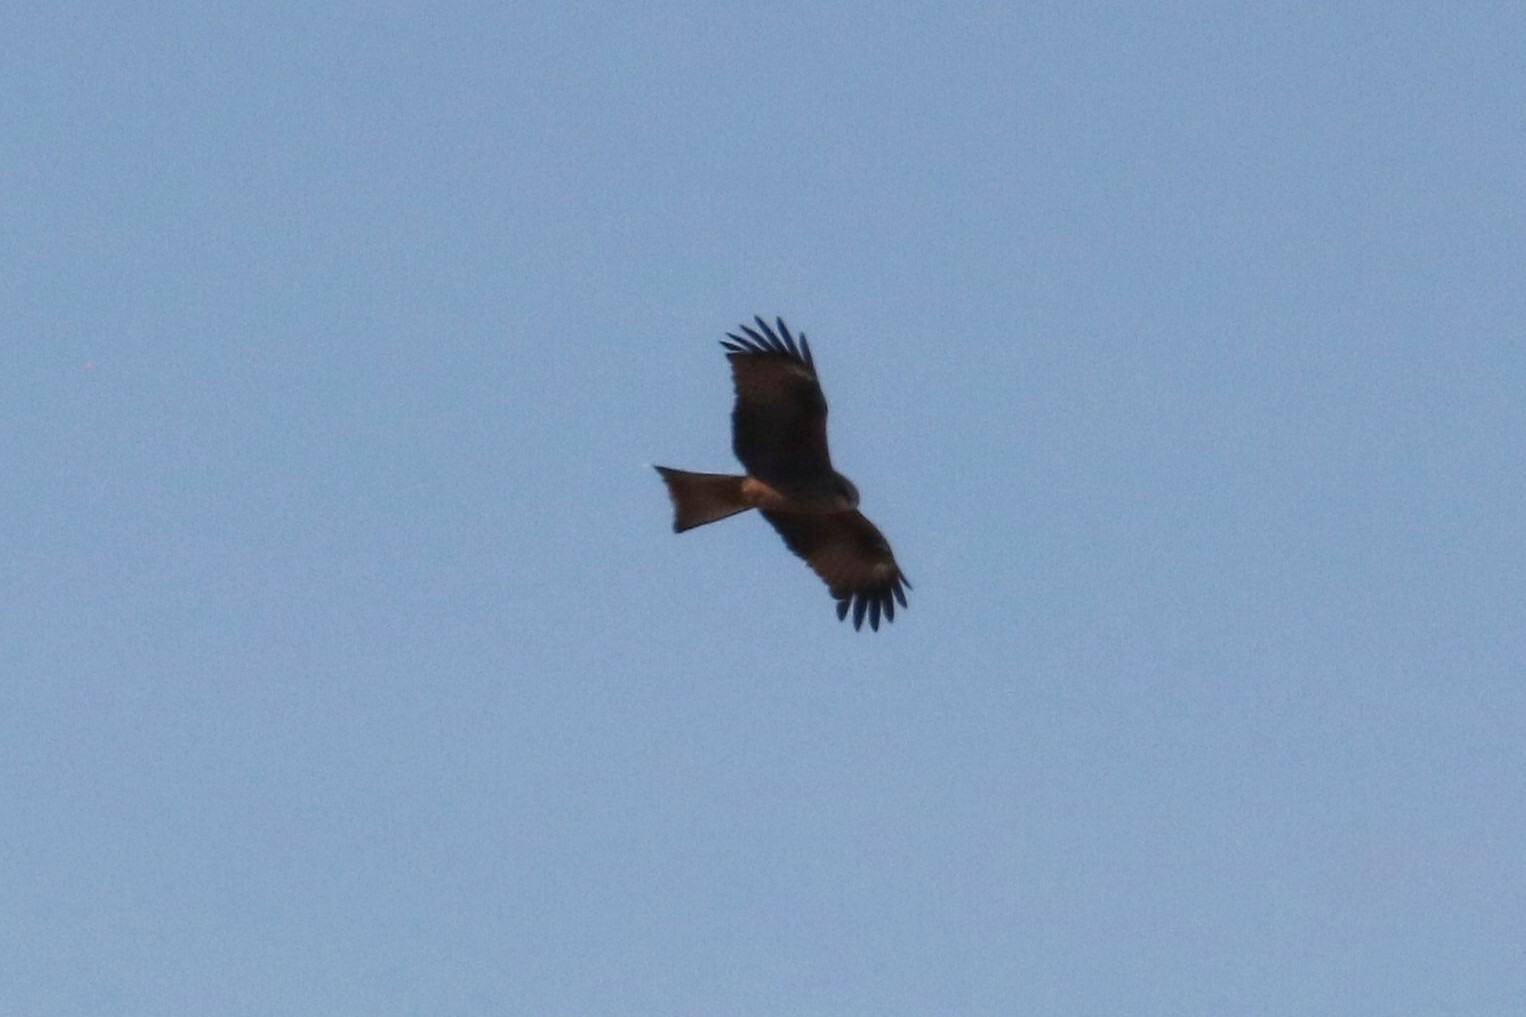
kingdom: Animalia
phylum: Chordata
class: Aves
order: Accipitriformes
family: Accipitridae
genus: Milvus
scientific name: Milvus migrans
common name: Black kite
